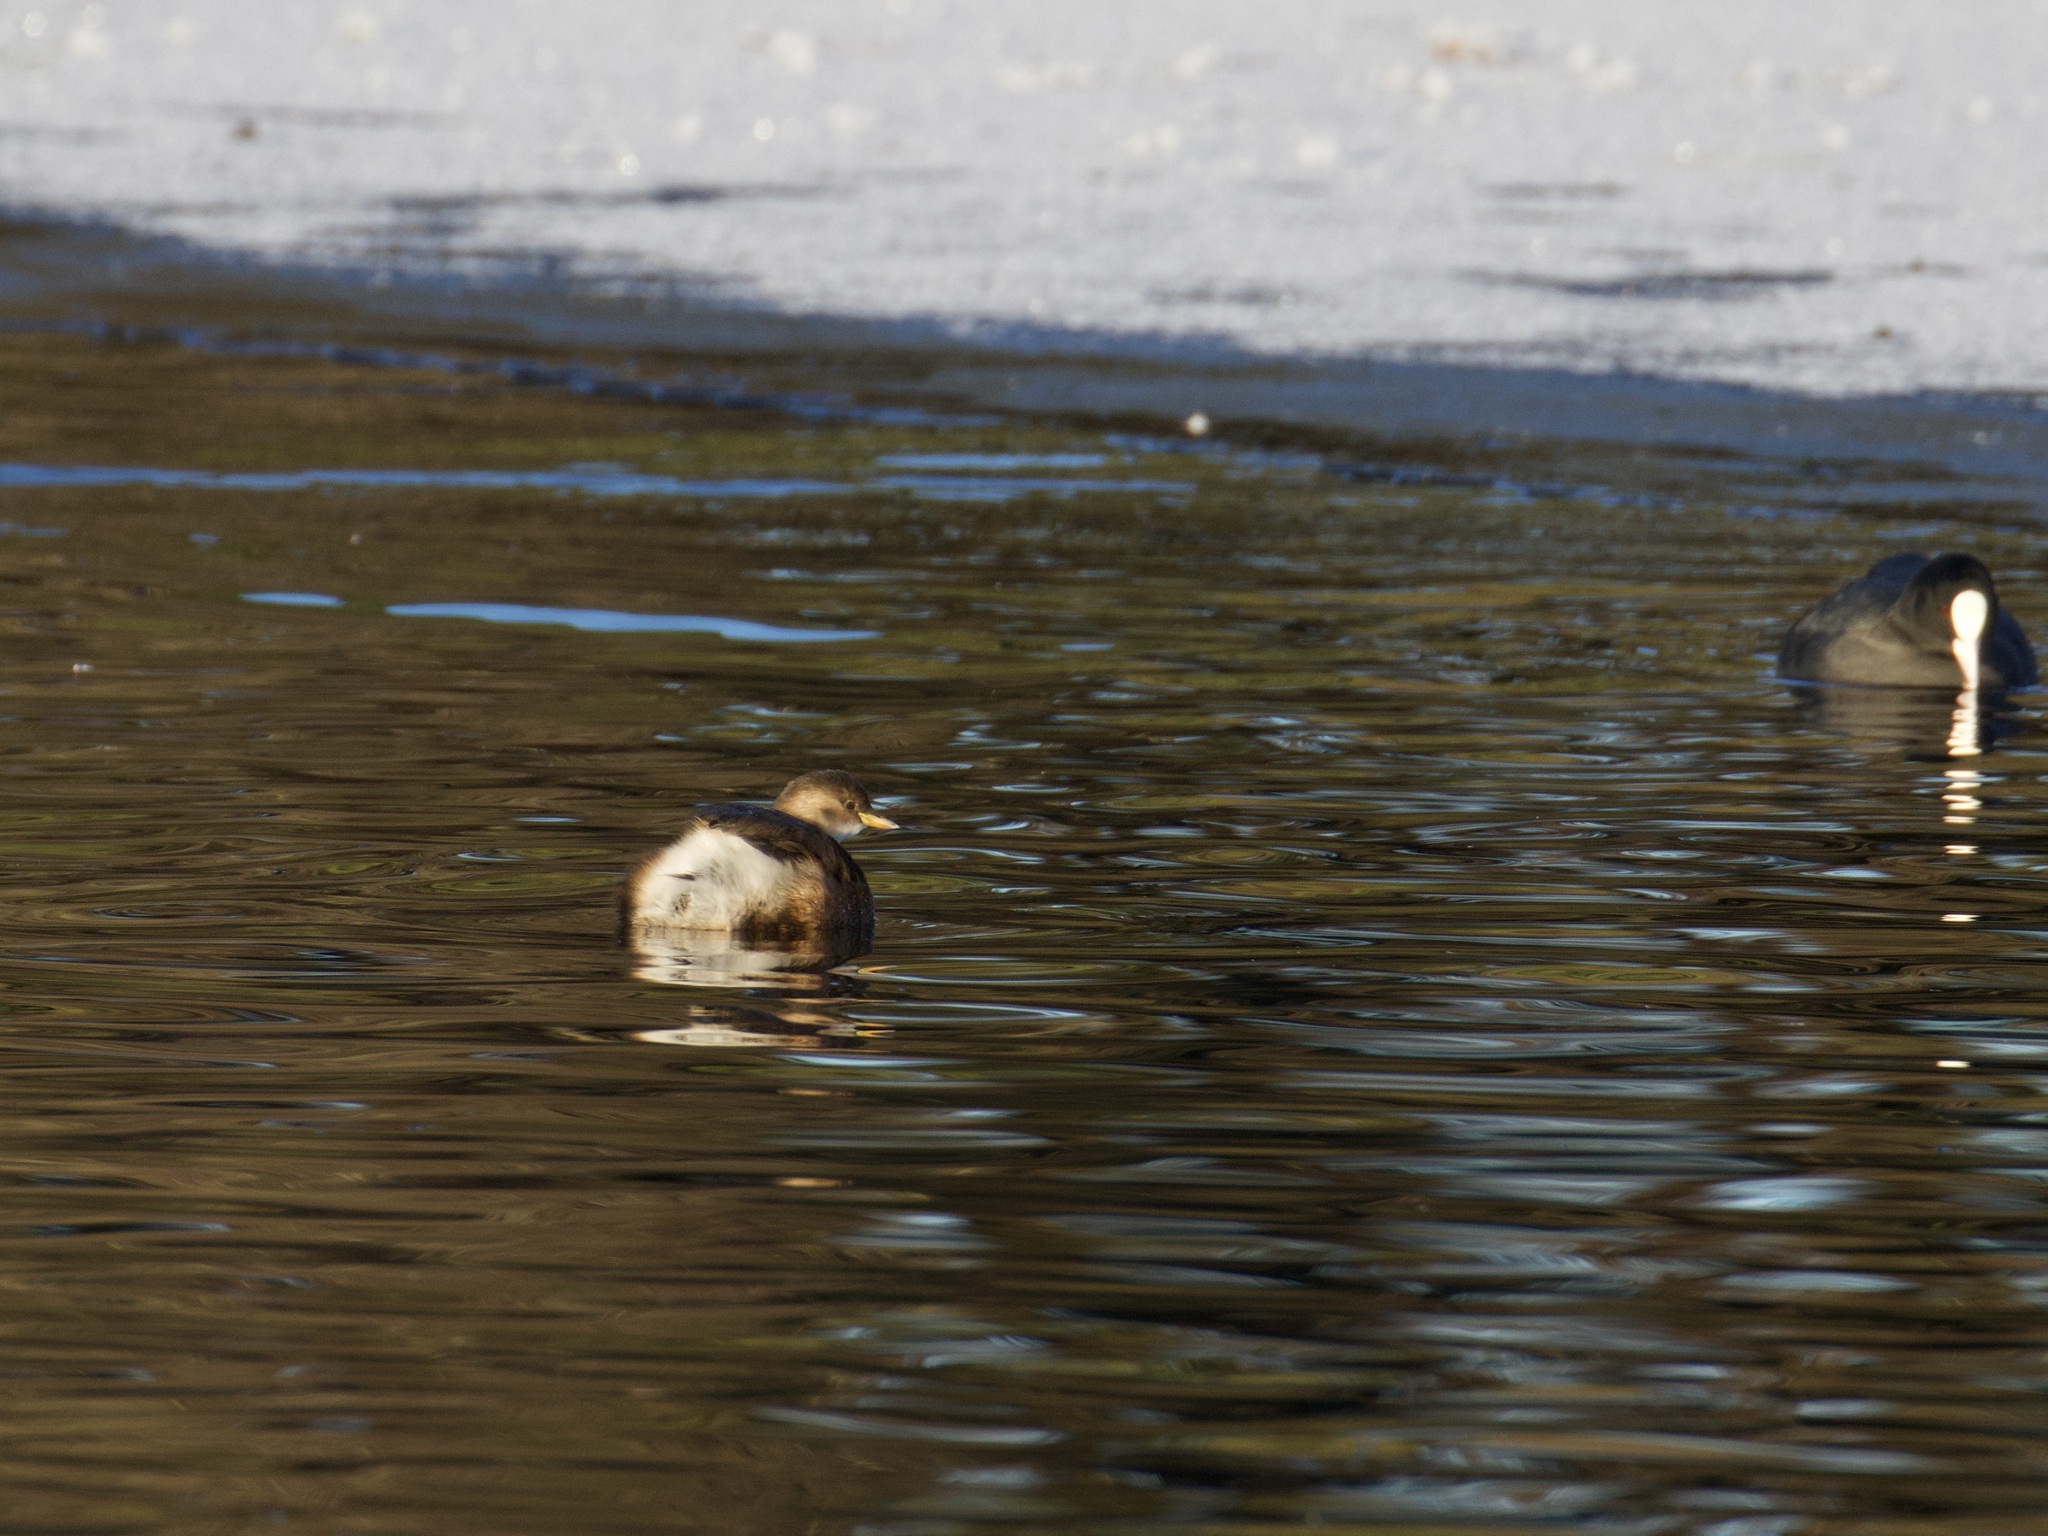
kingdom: Animalia
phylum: Chordata
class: Aves
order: Podicipediformes
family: Podicipedidae
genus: Tachybaptus
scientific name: Tachybaptus ruficollis
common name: Little grebe
